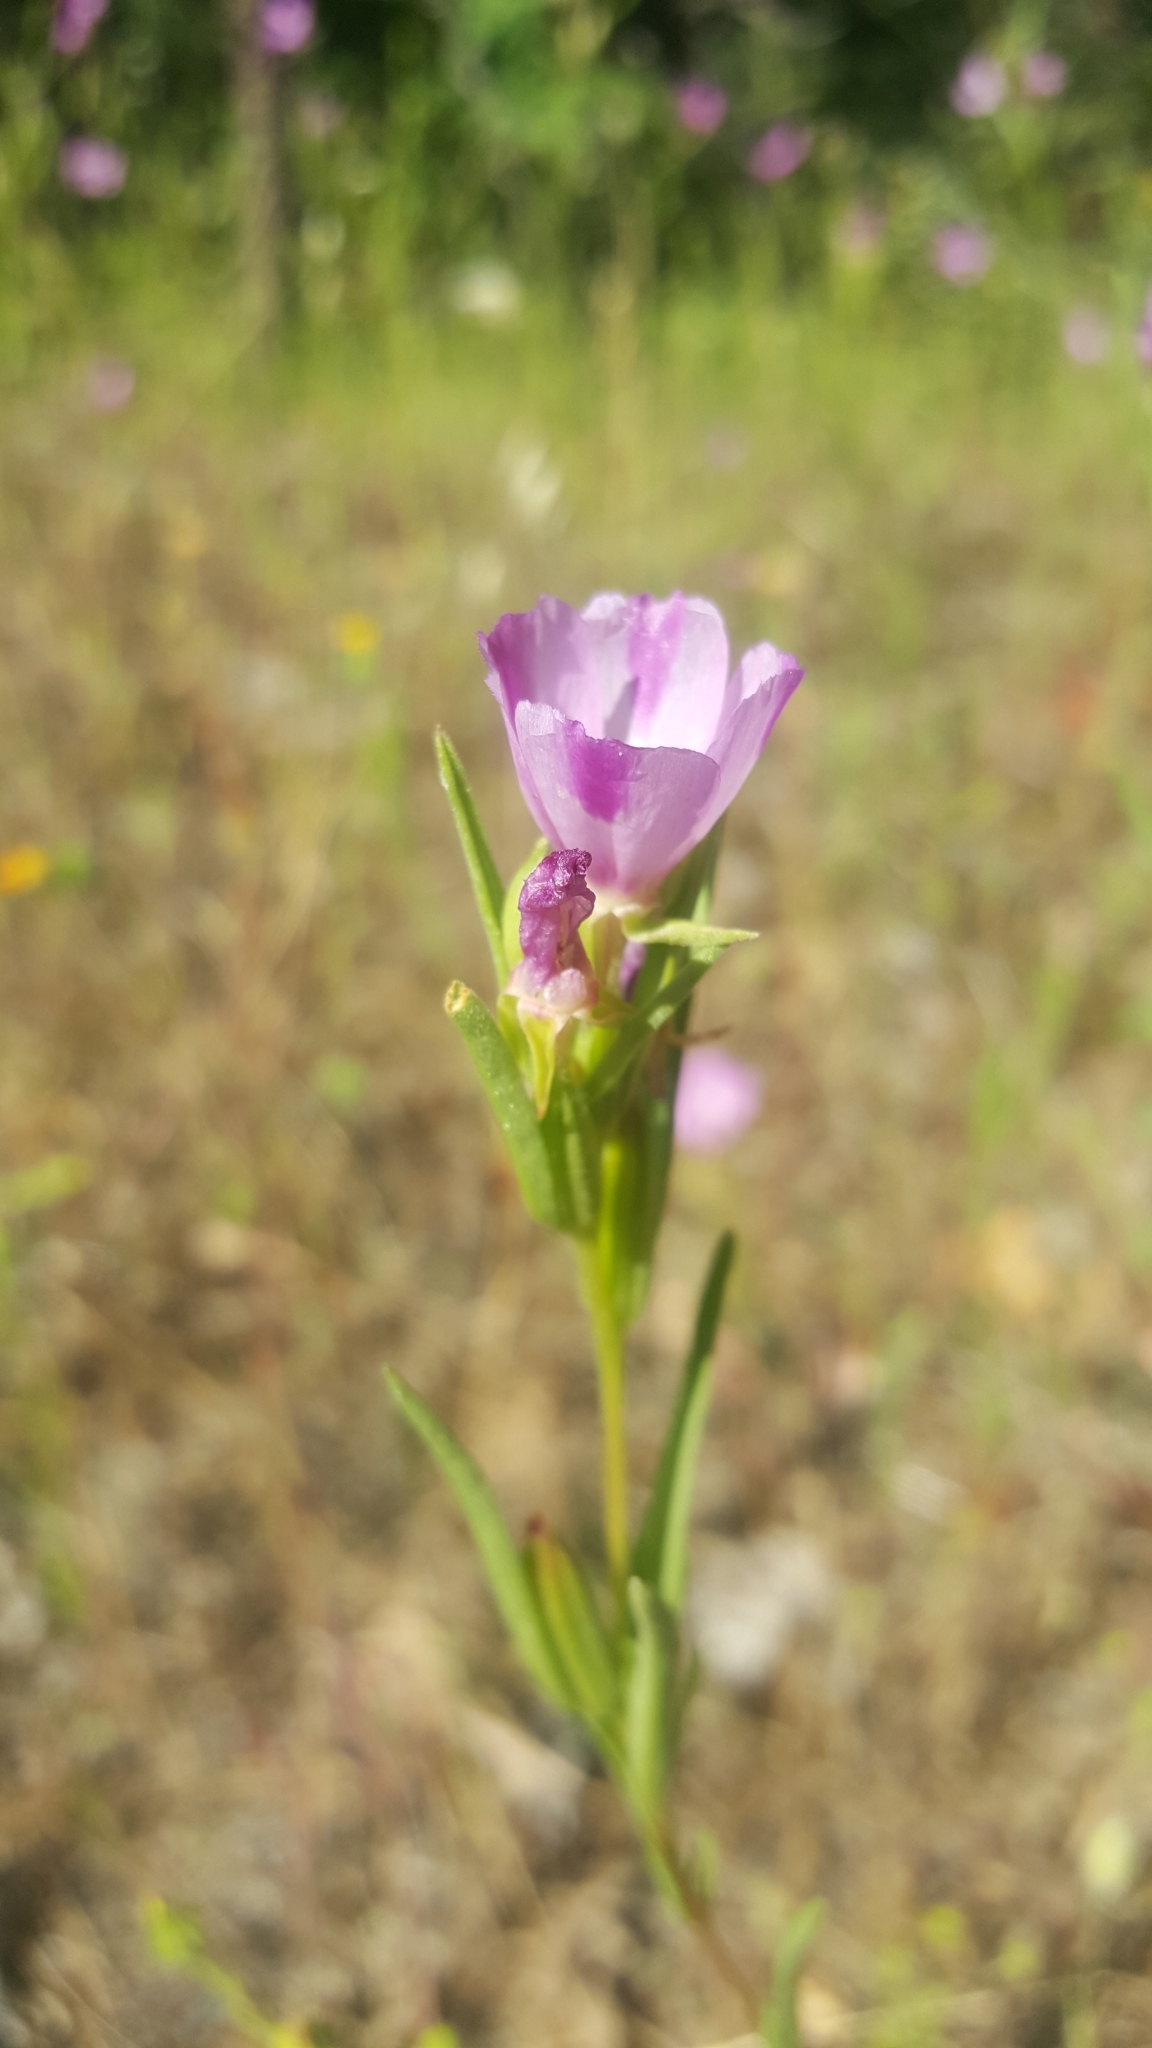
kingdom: Plantae
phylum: Tracheophyta
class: Magnoliopsida
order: Myrtales
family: Onagraceae
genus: Clarkia
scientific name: Clarkia purpurea
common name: Purple clarkia
